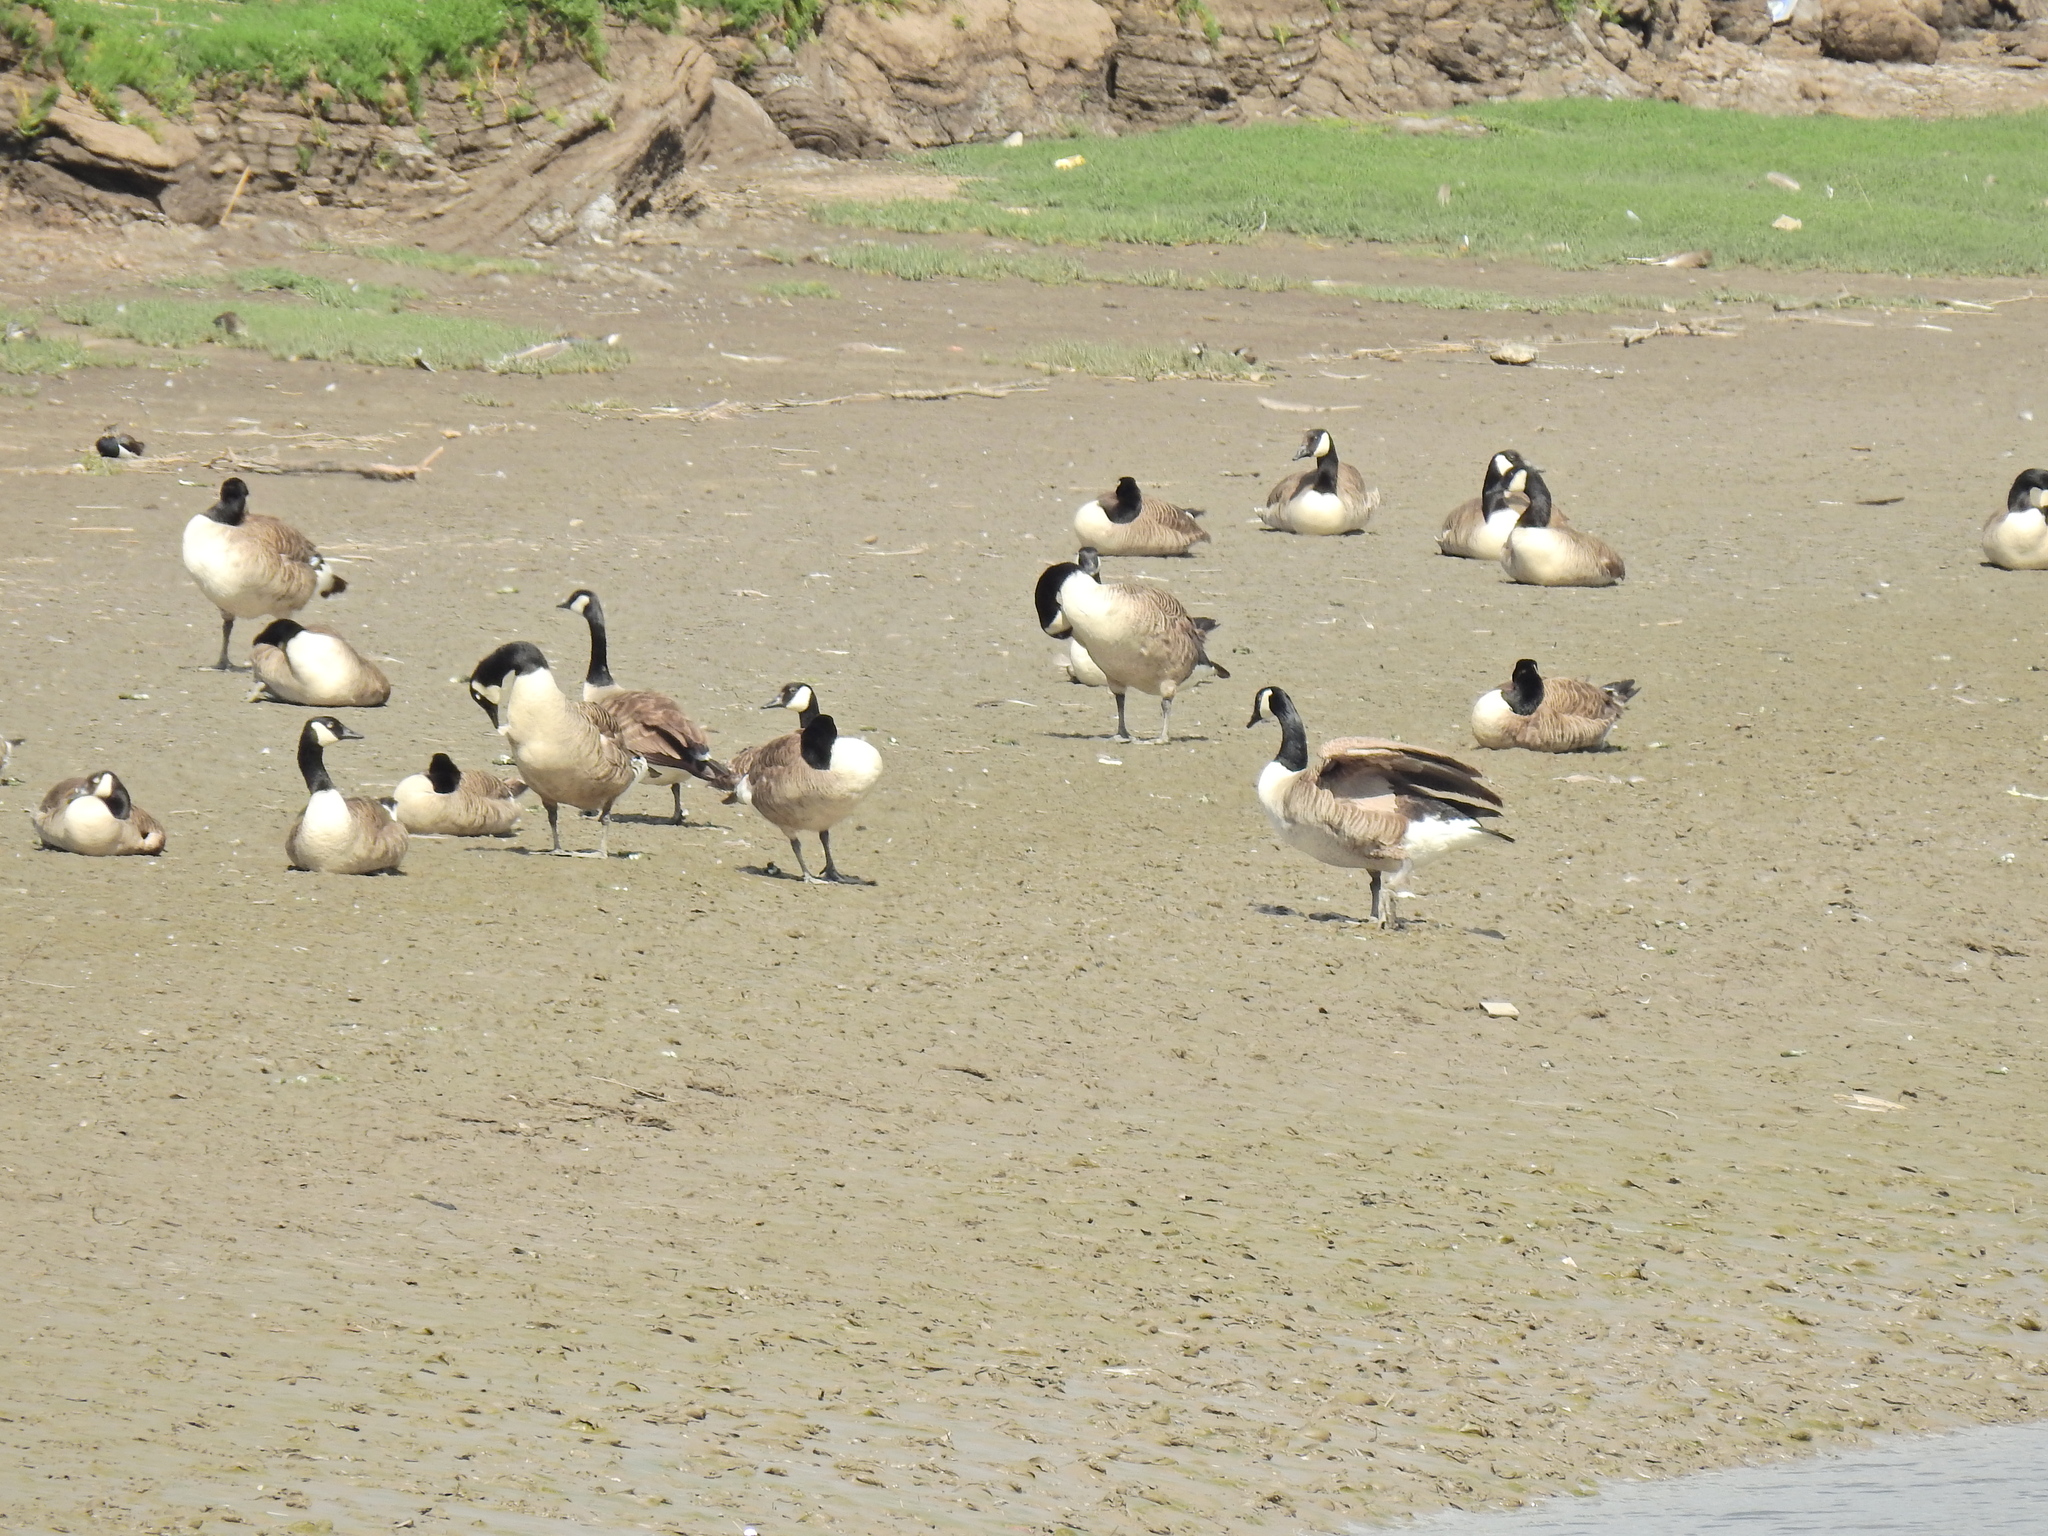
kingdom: Animalia
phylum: Chordata
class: Aves
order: Anseriformes
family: Anatidae
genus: Branta
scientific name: Branta canadensis
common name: Canada goose
